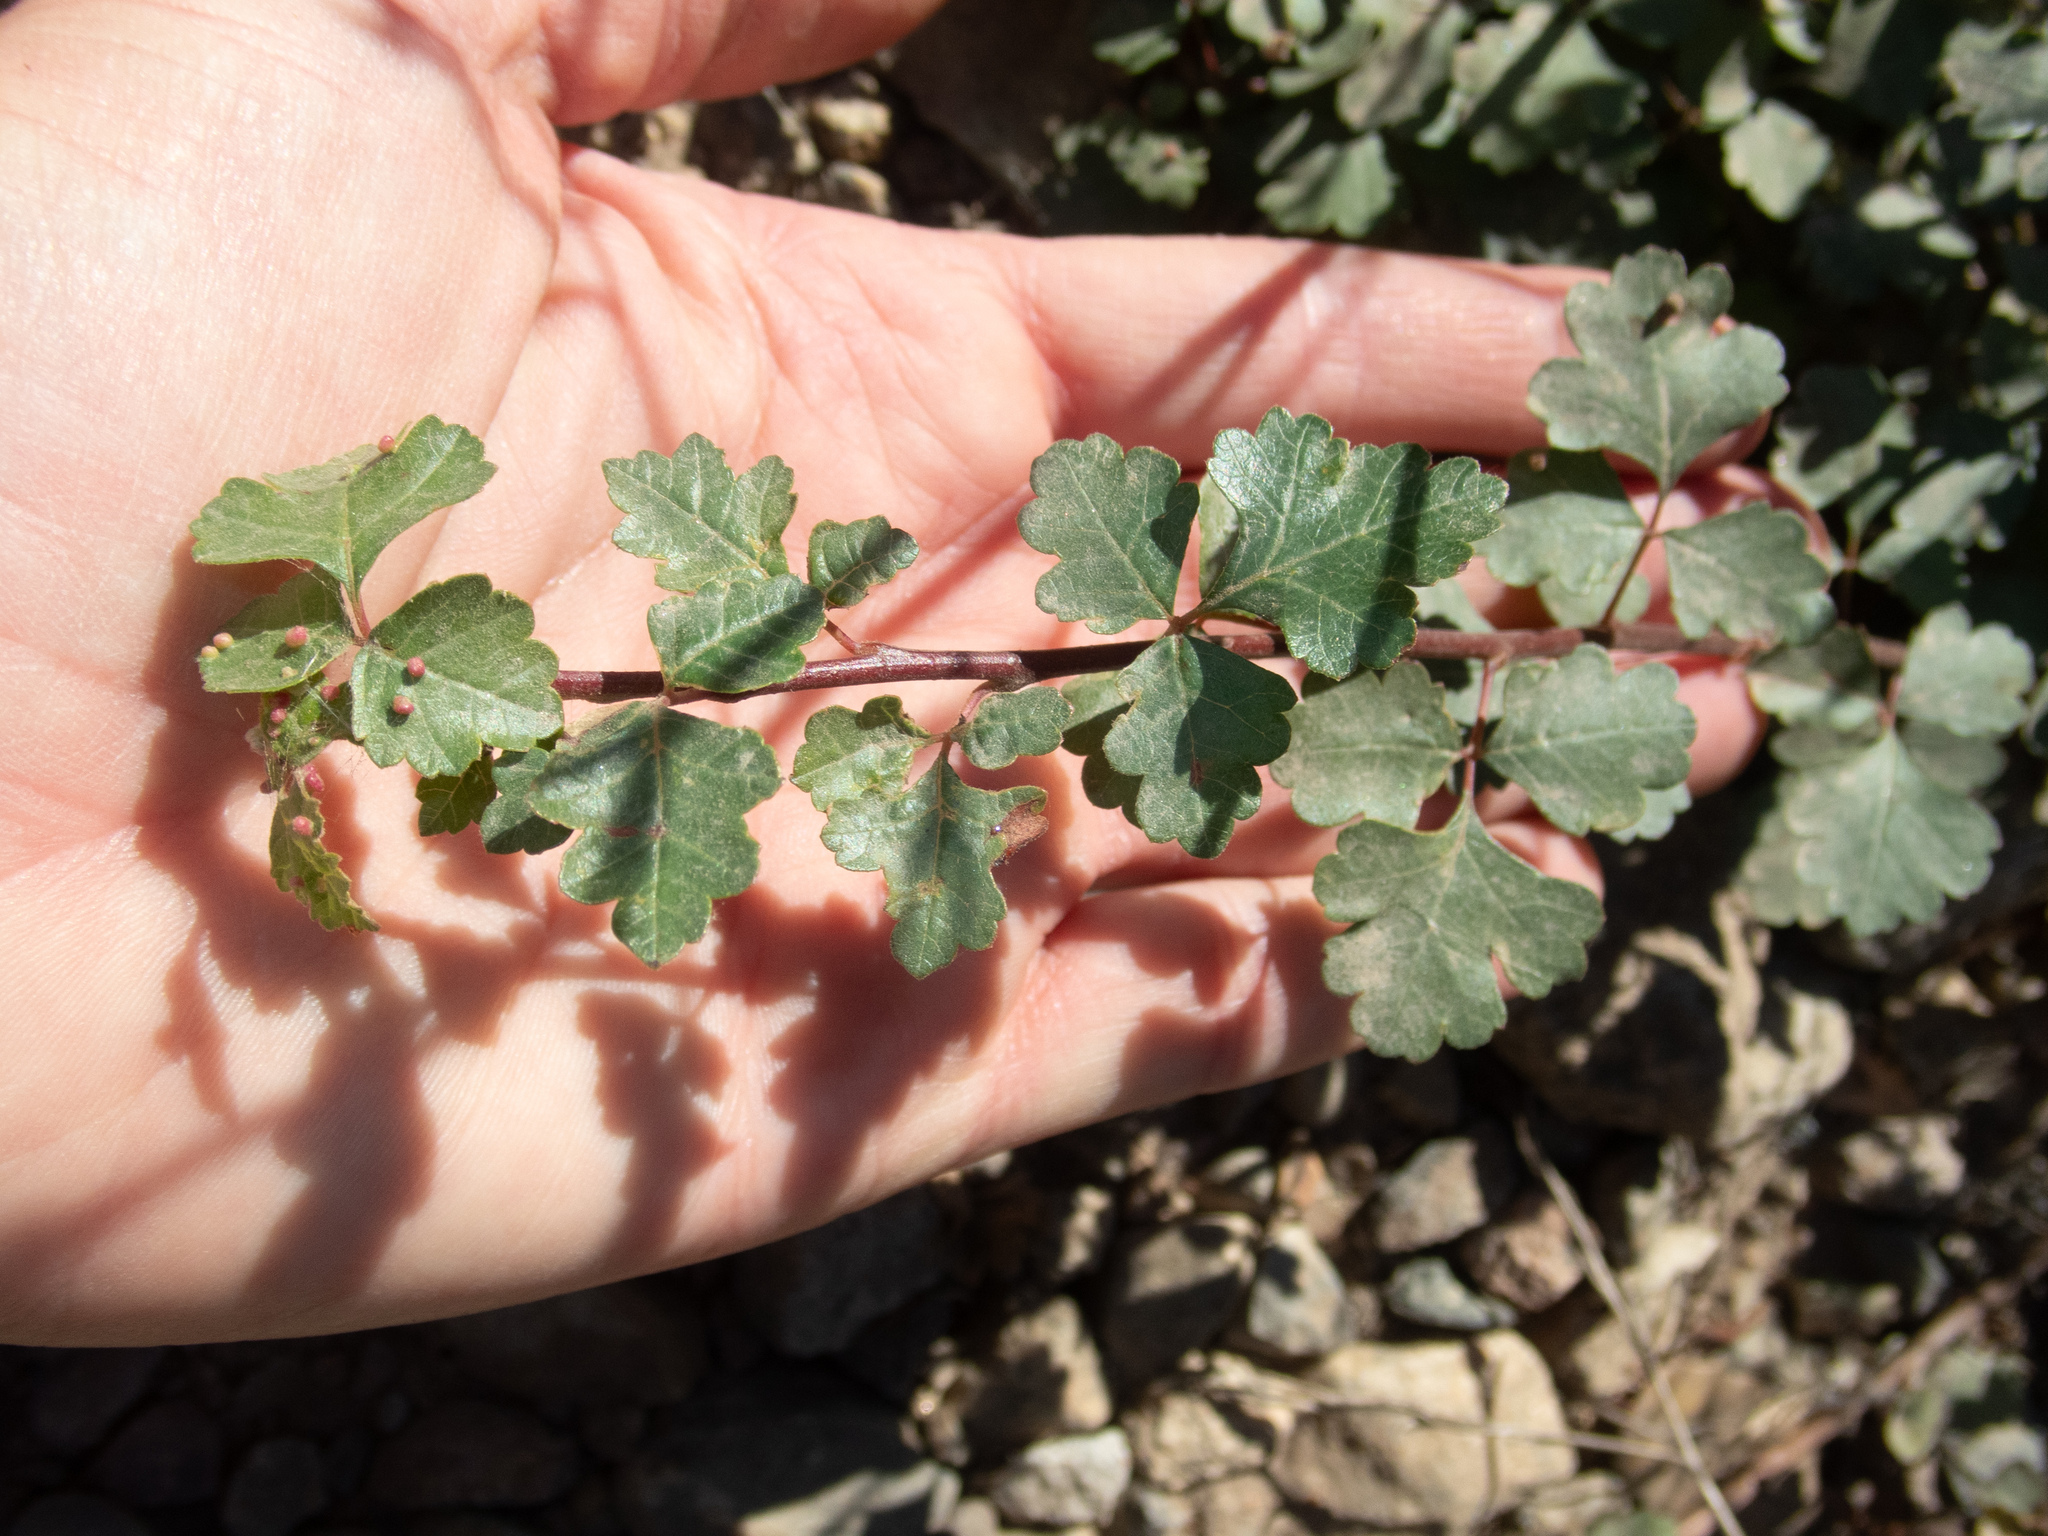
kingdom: Plantae
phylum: Tracheophyta
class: Magnoliopsida
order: Sapindales
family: Anacardiaceae
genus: Rhus
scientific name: Rhus aromatica
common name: Aromatic sumac
